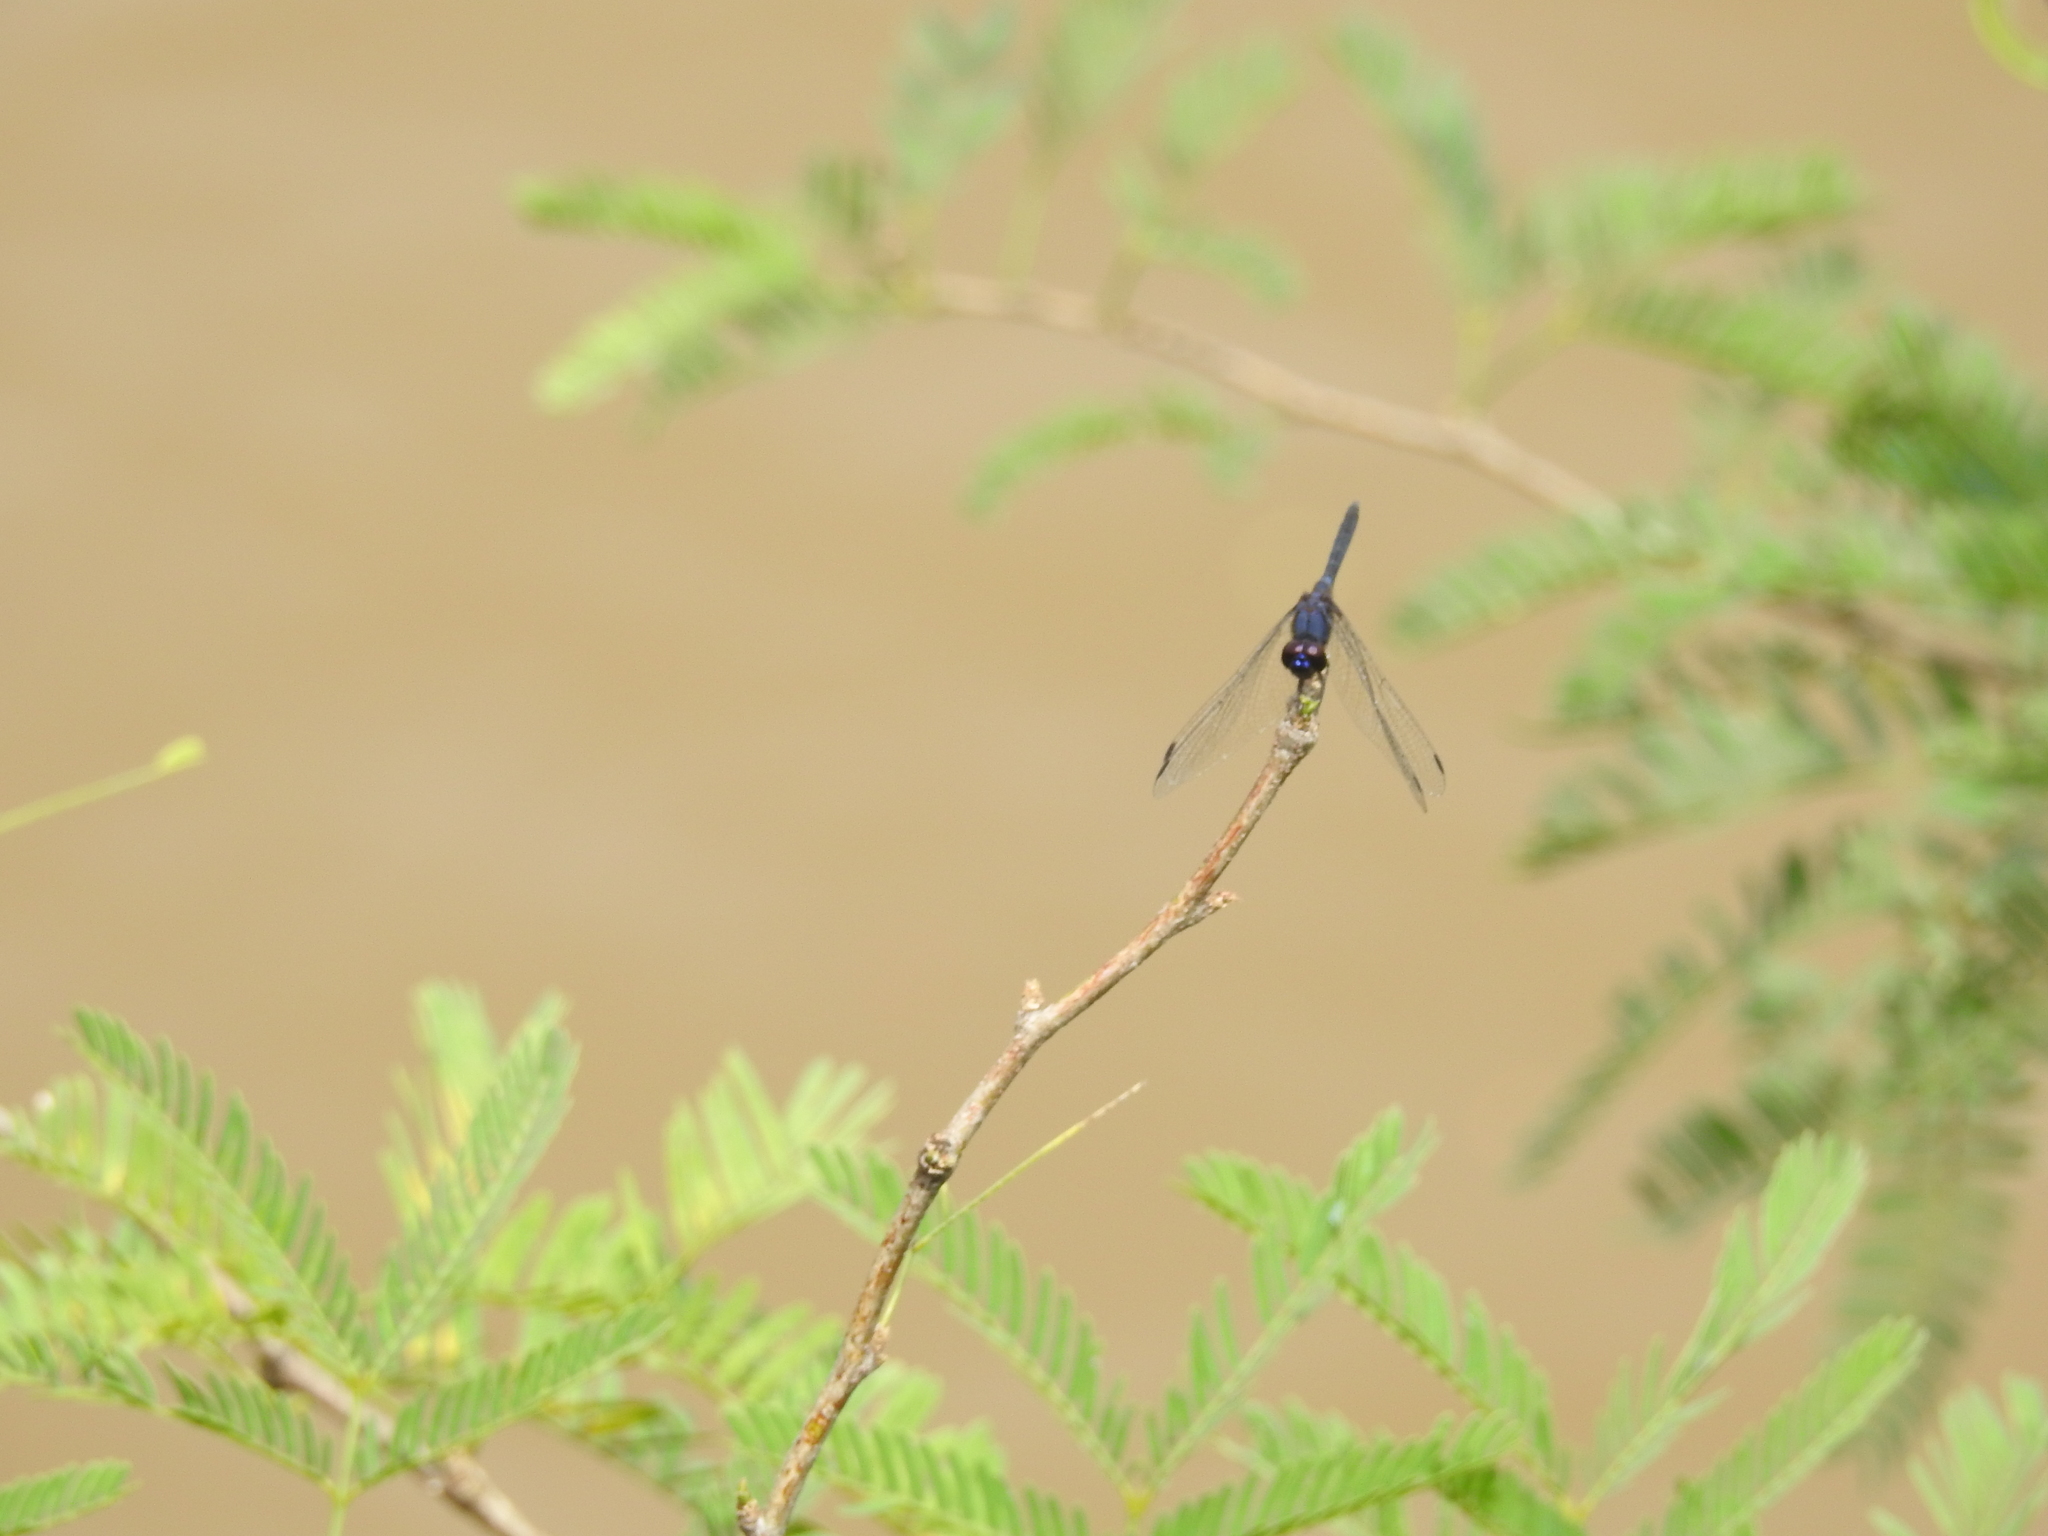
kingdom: Animalia
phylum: Arthropoda
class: Insecta
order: Odonata
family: Libellulidae
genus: Trithemis
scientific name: Trithemis festiva
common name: Indigo dropwing
